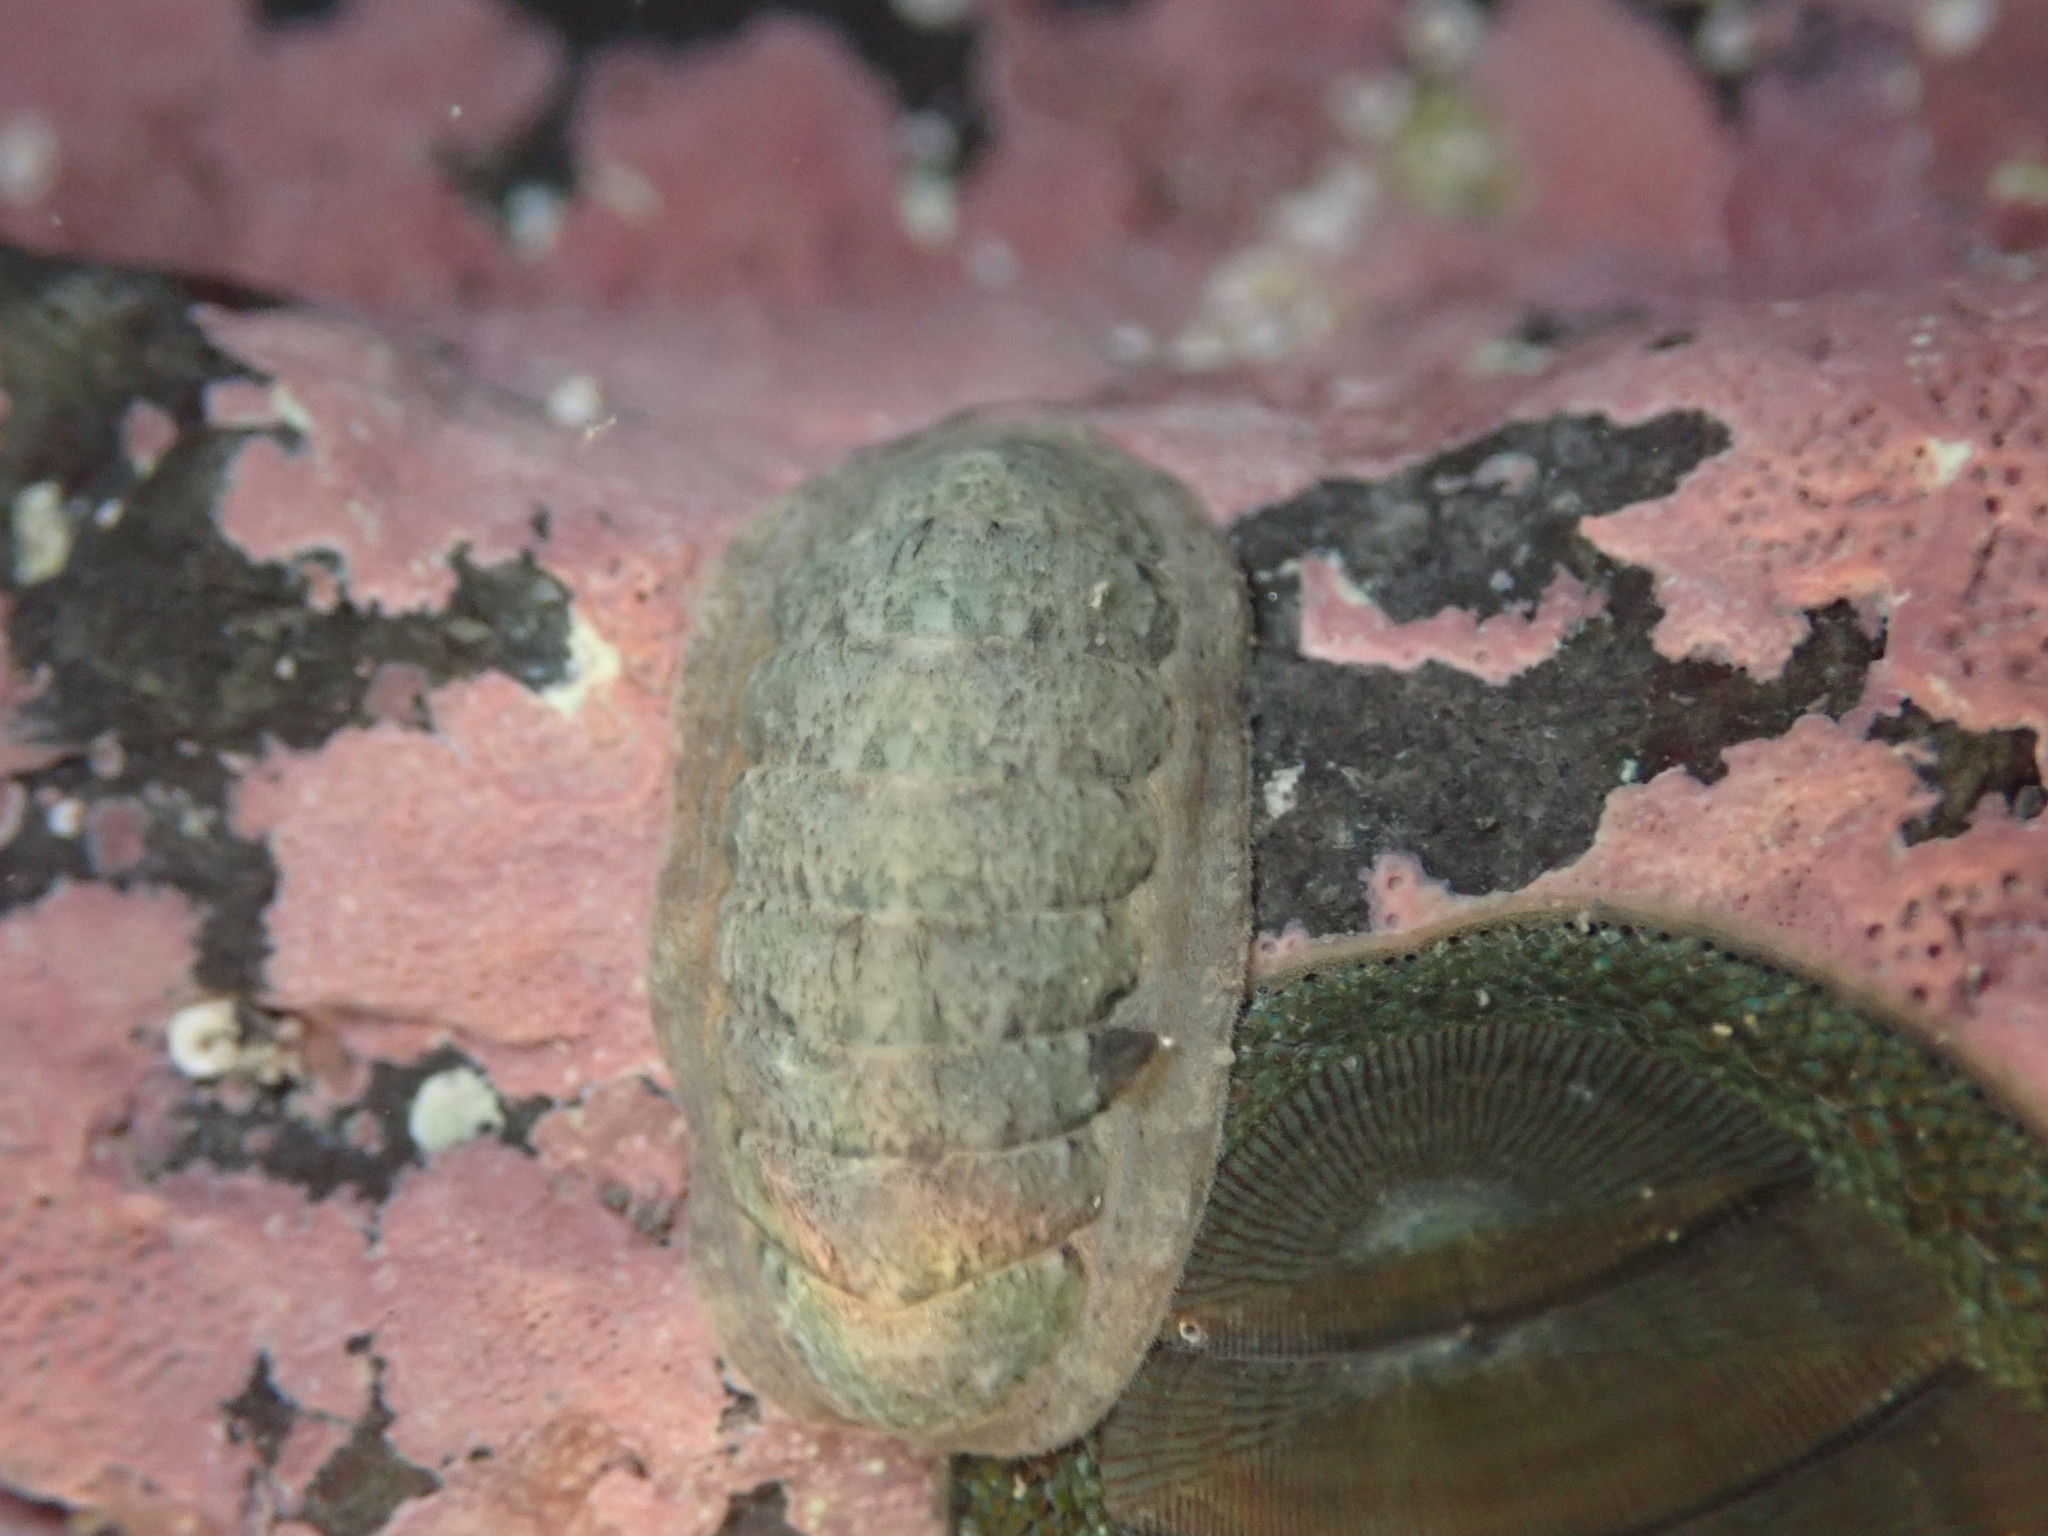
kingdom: Animalia
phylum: Mollusca
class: Polyplacophora
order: Chitonida
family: Ischnochitonidae
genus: Ischnochiton
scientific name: Ischnochiton maorianus
